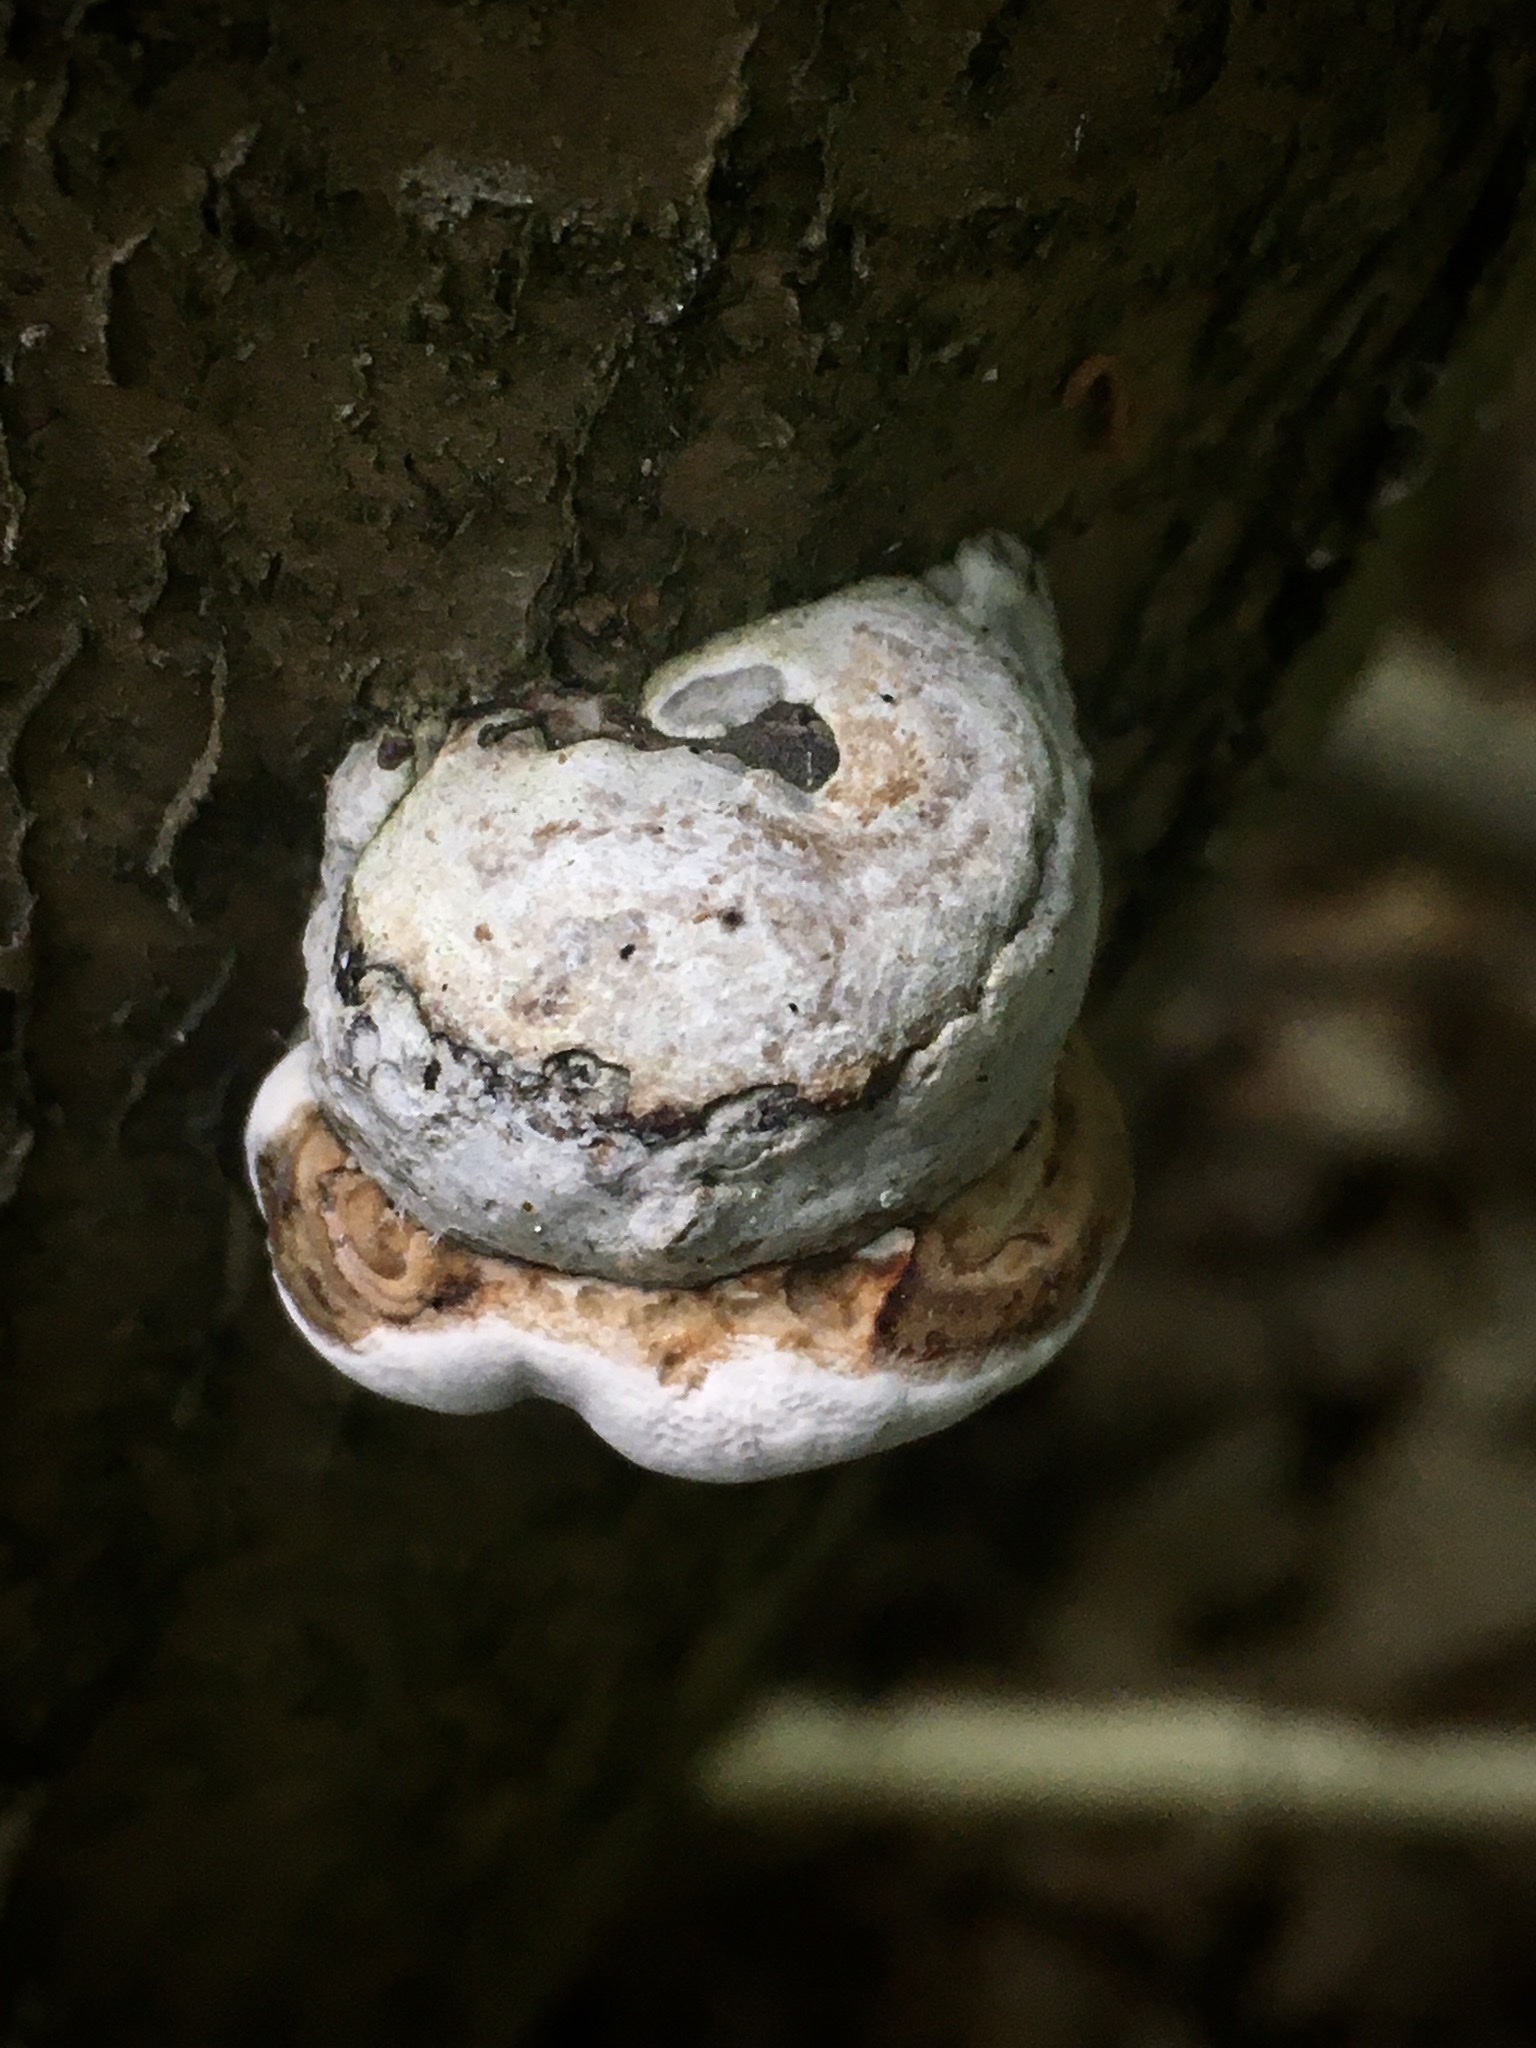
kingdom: Fungi
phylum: Basidiomycota
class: Agaricomycetes
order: Polyporales
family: Polyporaceae
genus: Fomes
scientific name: Fomes fomentarius
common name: Hoof fungus
